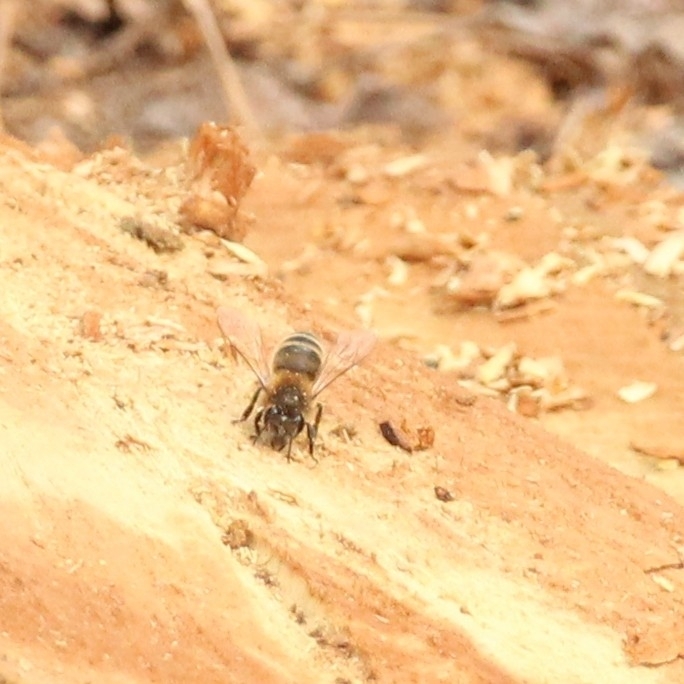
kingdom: Animalia
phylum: Arthropoda
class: Insecta
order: Hymenoptera
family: Apidae
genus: Apis
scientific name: Apis mellifera
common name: Honey bee
